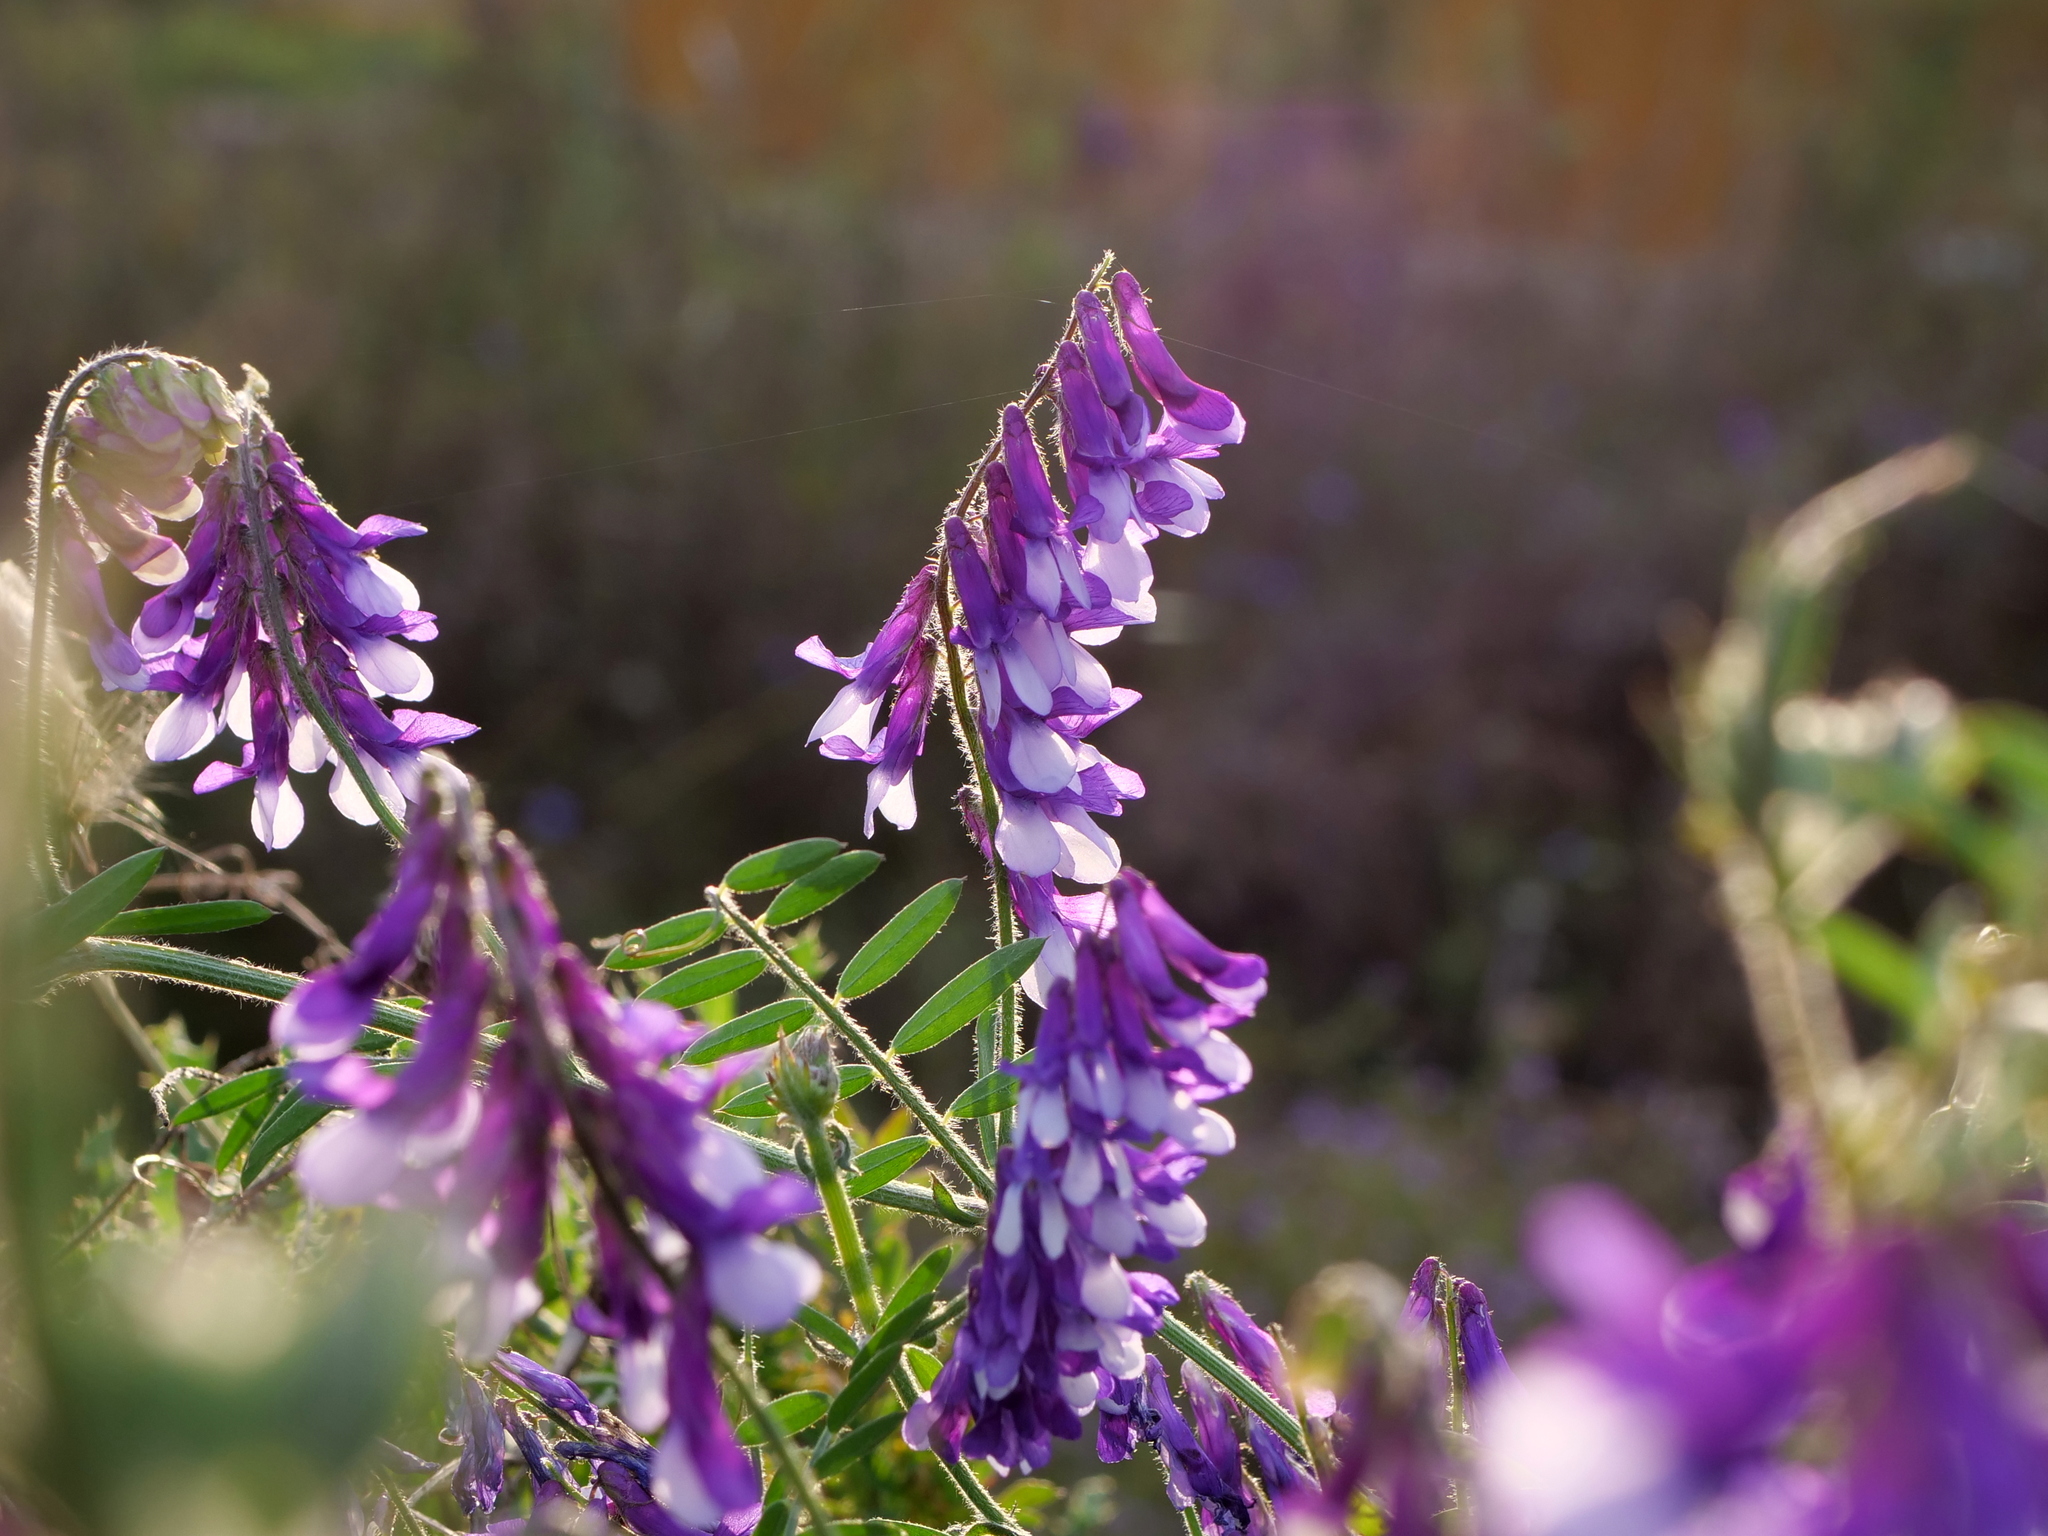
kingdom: Plantae
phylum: Tracheophyta
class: Magnoliopsida
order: Fabales
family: Fabaceae
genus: Vicia
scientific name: Vicia villosa
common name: Fodder vetch
